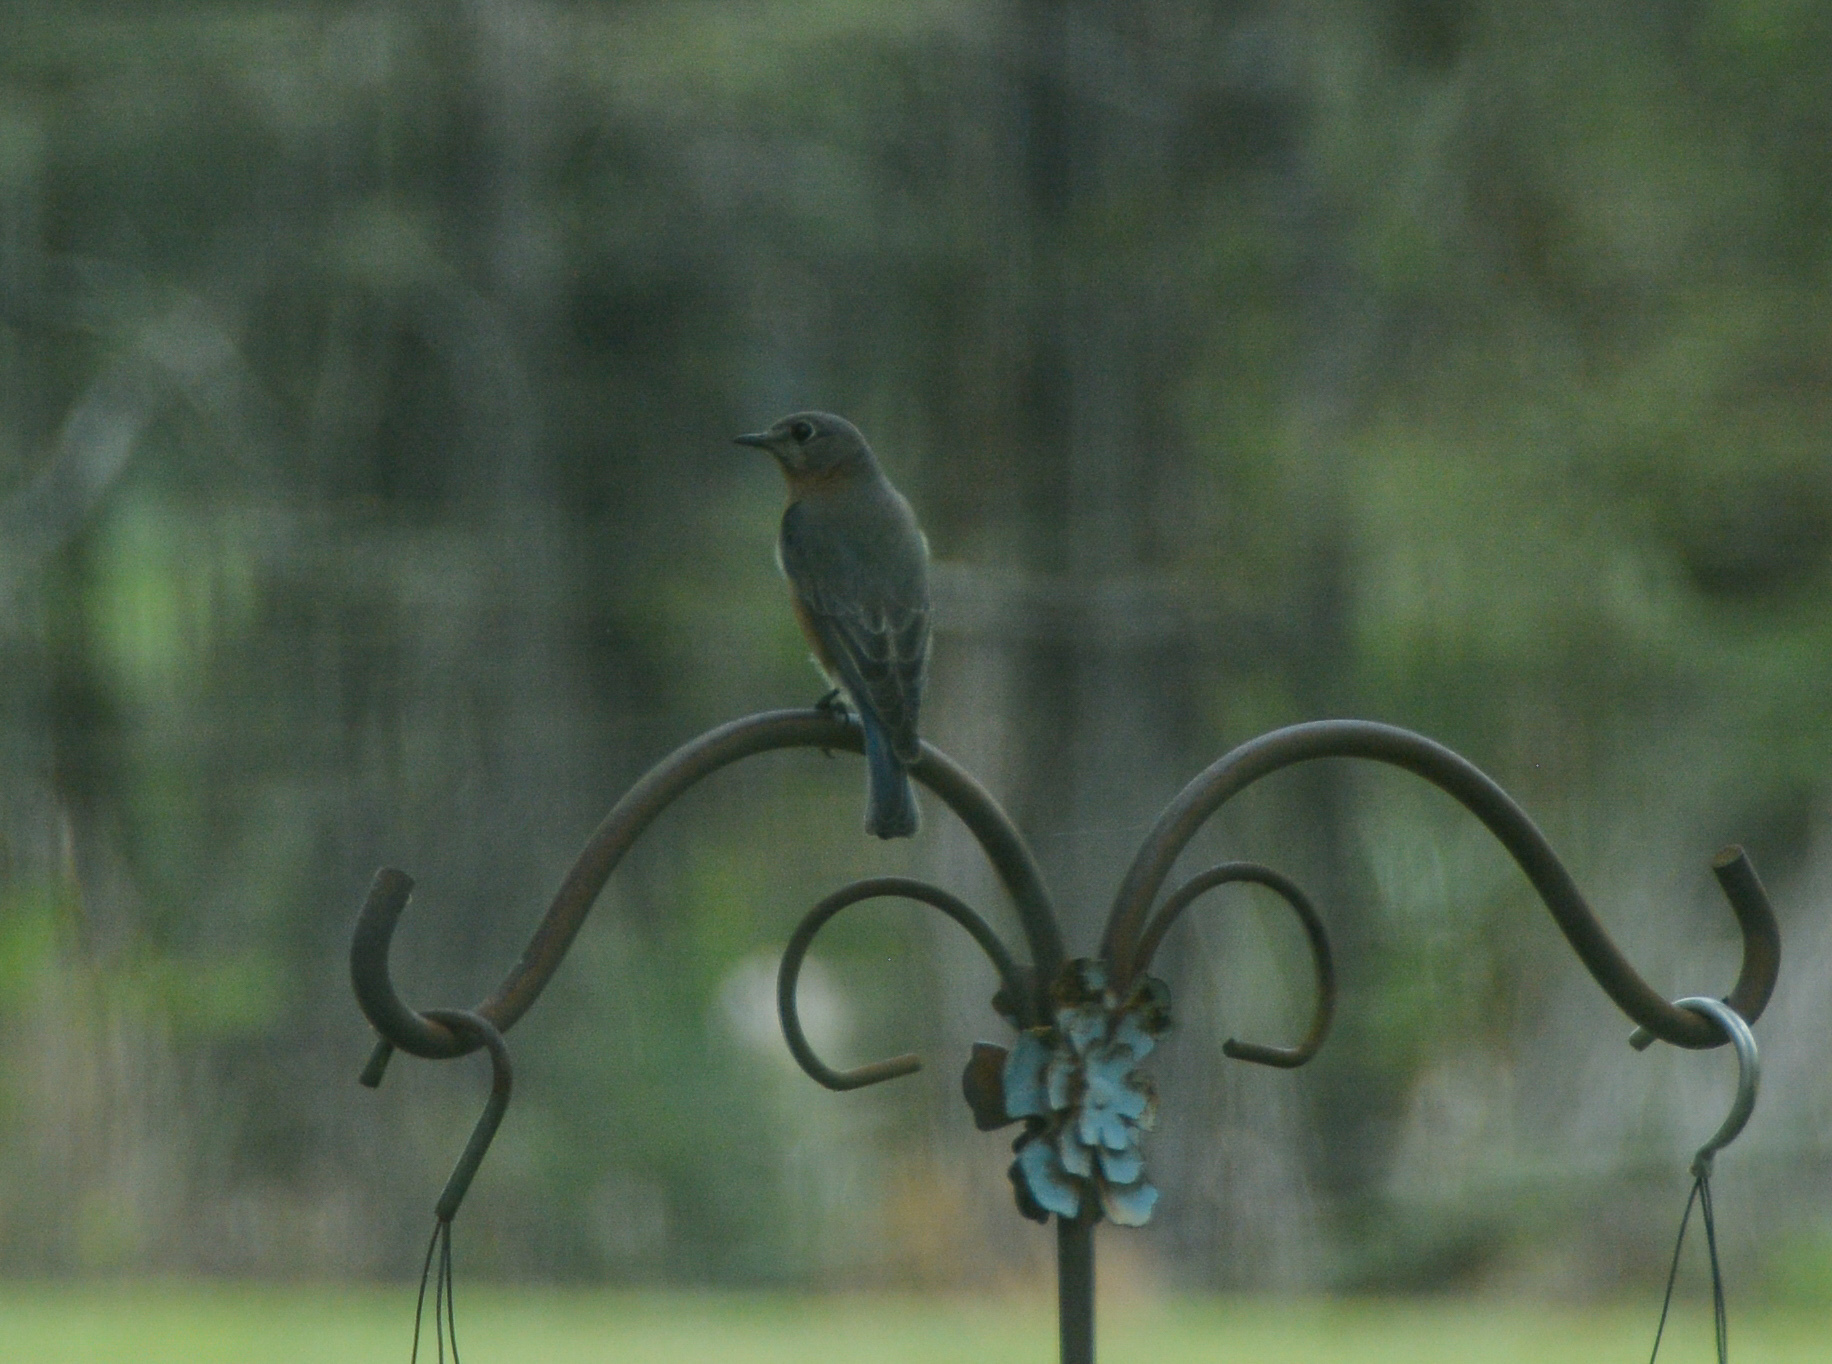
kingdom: Animalia
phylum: Chordata
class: Aves
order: Passeriformes
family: Turdidae
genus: Sialia
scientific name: Sialia sialis
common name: Eastern bluebird
